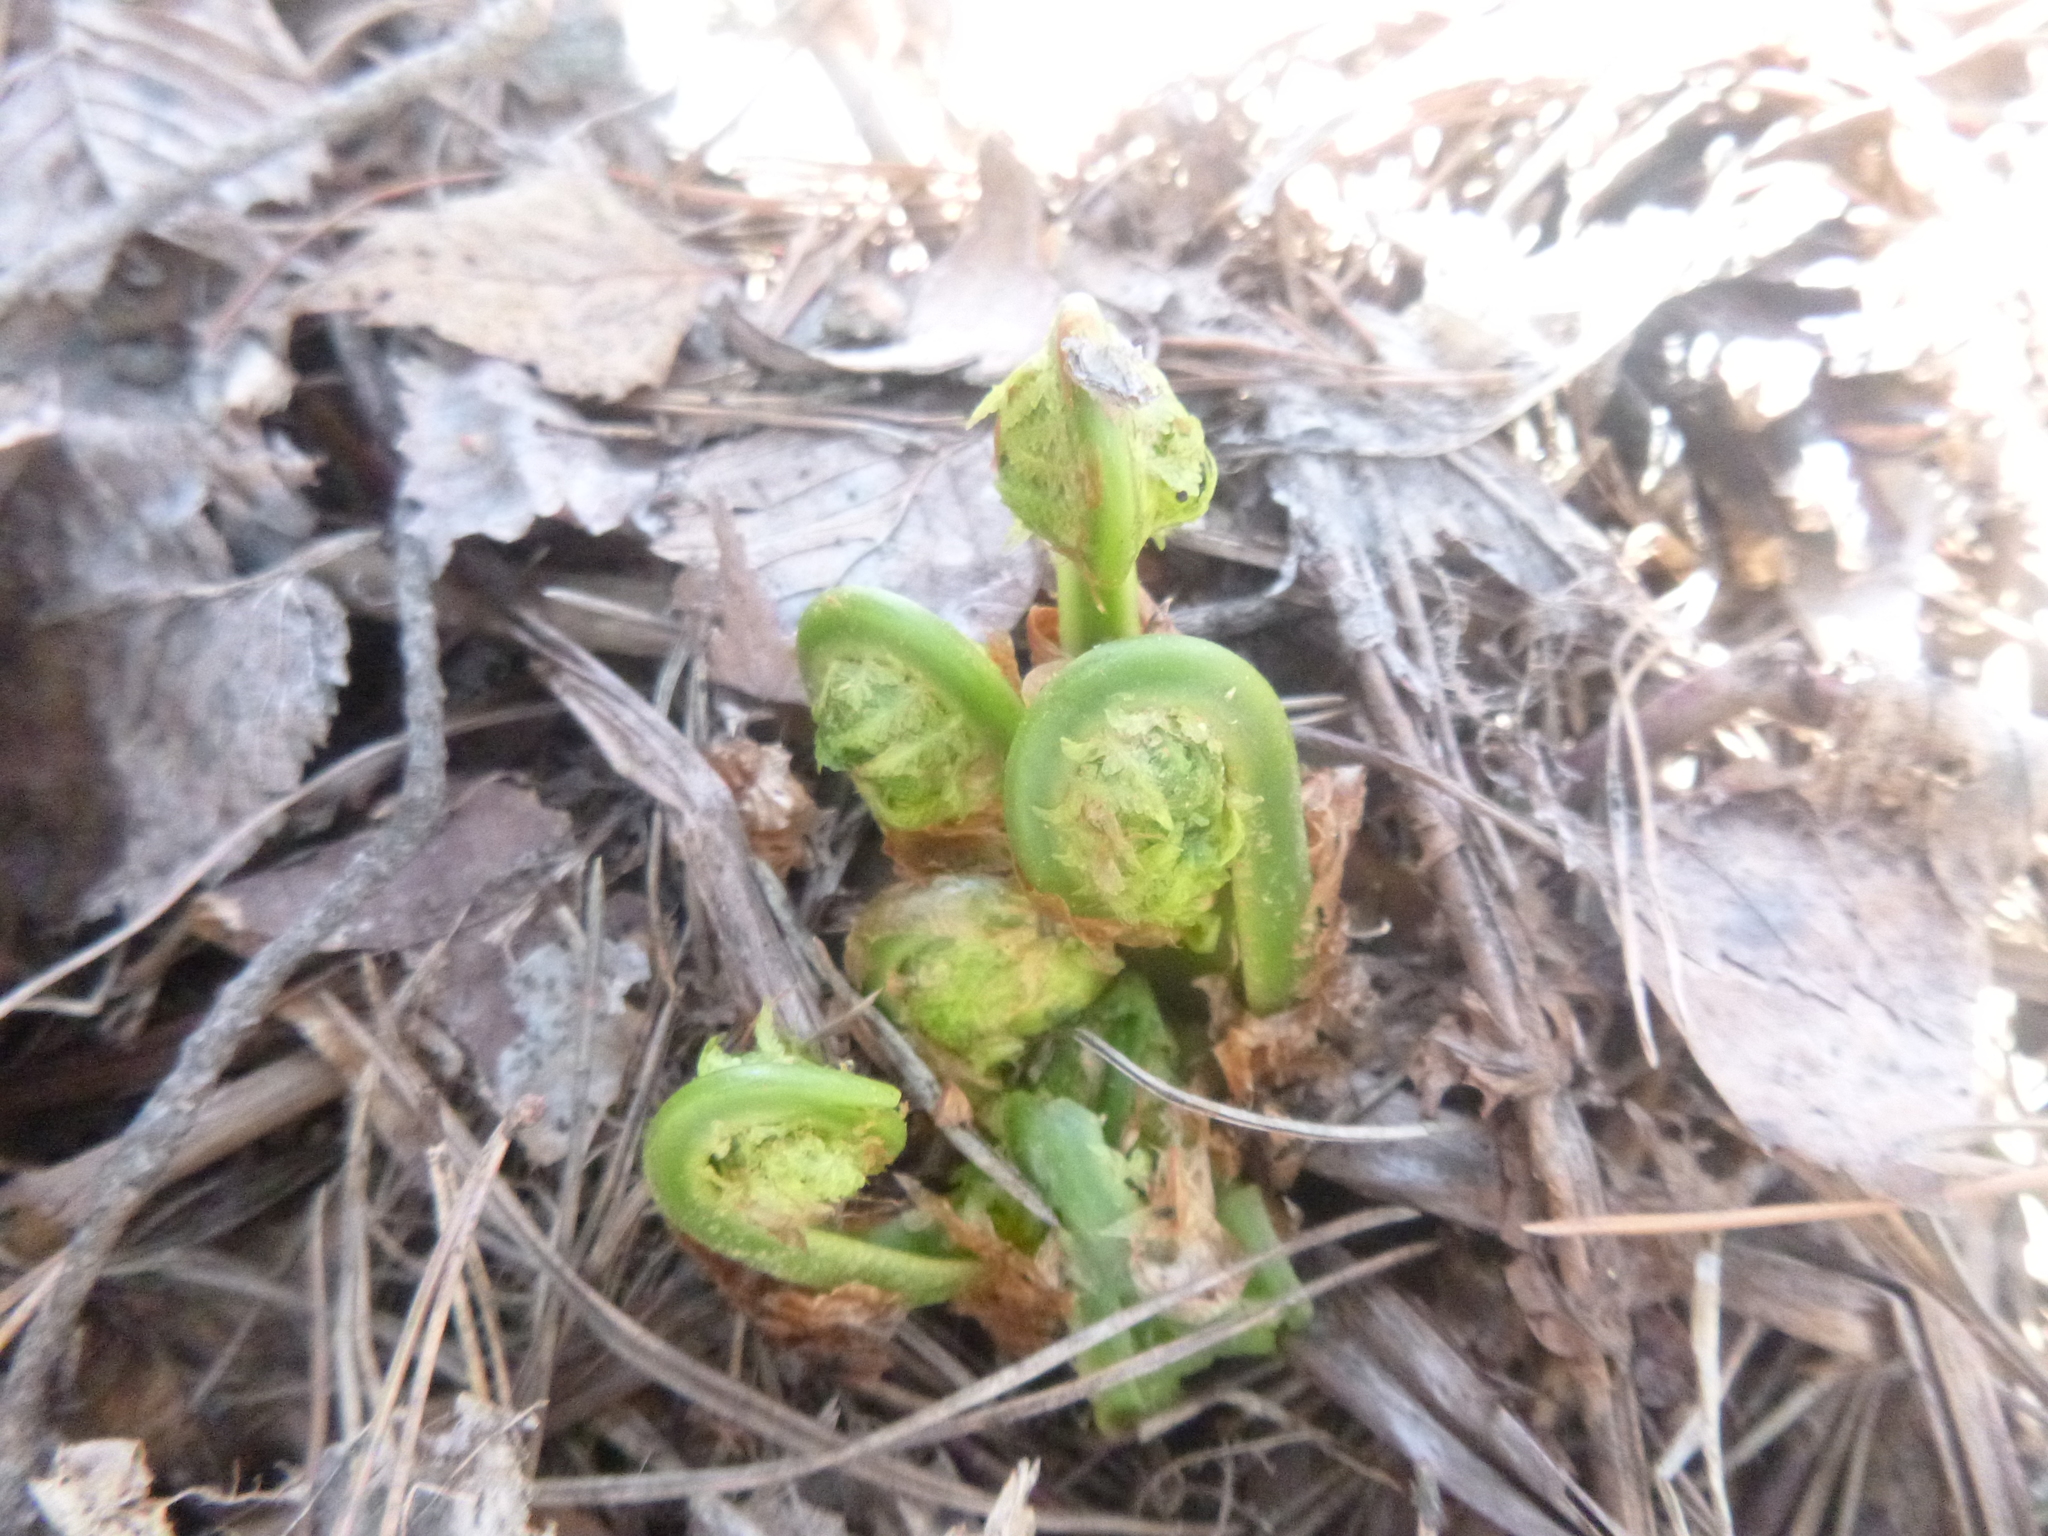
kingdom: Plantae
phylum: Tracheophyta
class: Polypodiopsida
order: Polypodiales
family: Dryopteridaceae
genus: Dryopteris
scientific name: Dryopteris filix-mas
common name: Male fern
